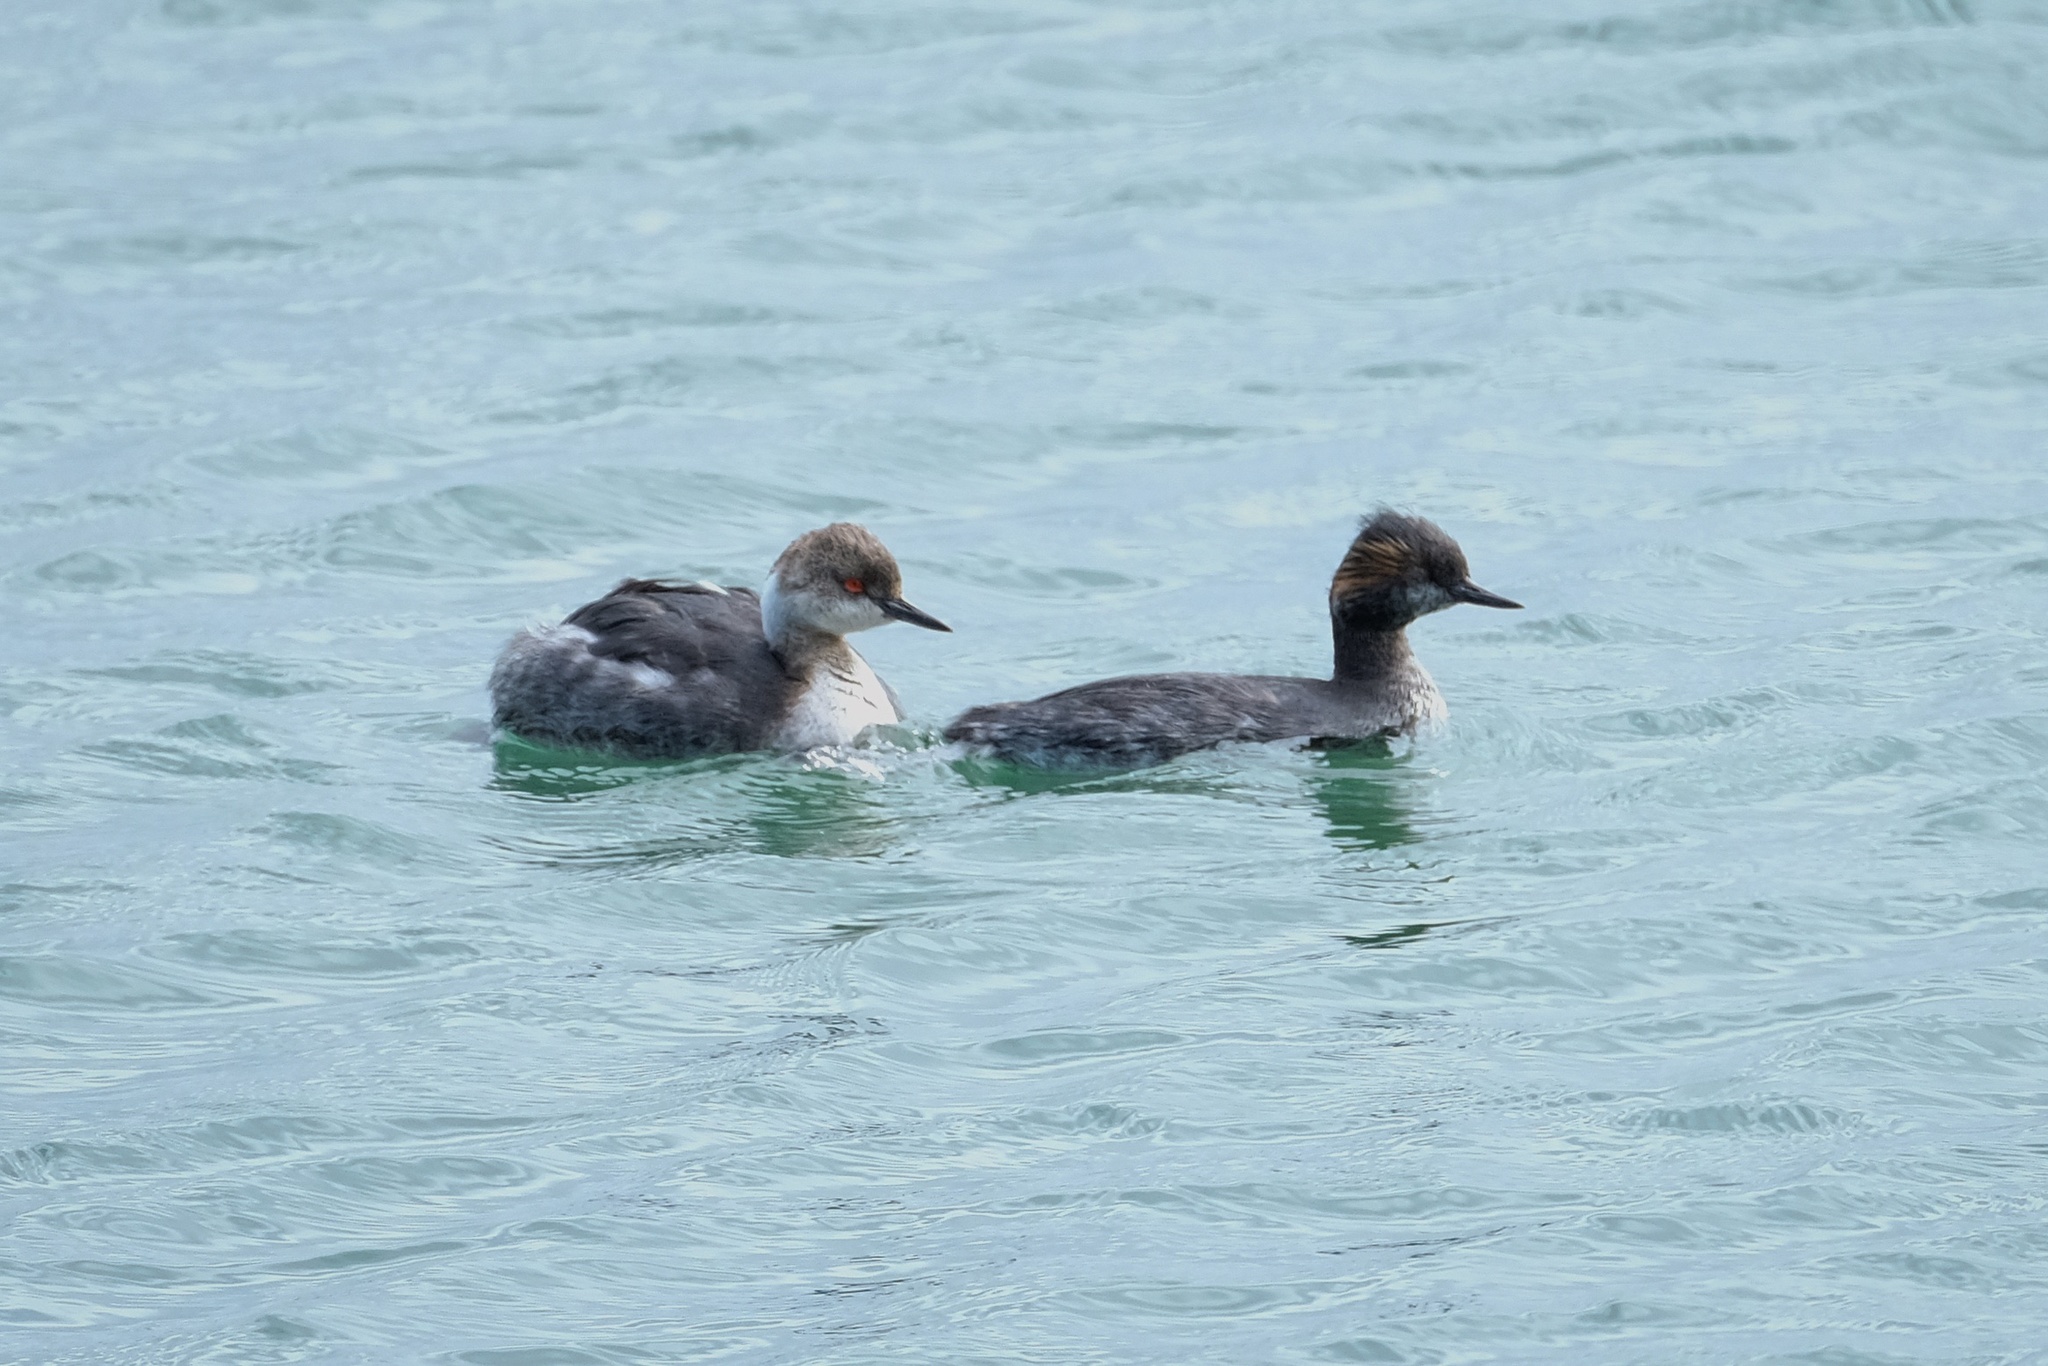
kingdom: Animalia
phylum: Chordata
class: Aves
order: Podicipediformes
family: Podicipedidae
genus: Podiceps
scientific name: Podiceps nigricollis
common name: Black-necked grebe
